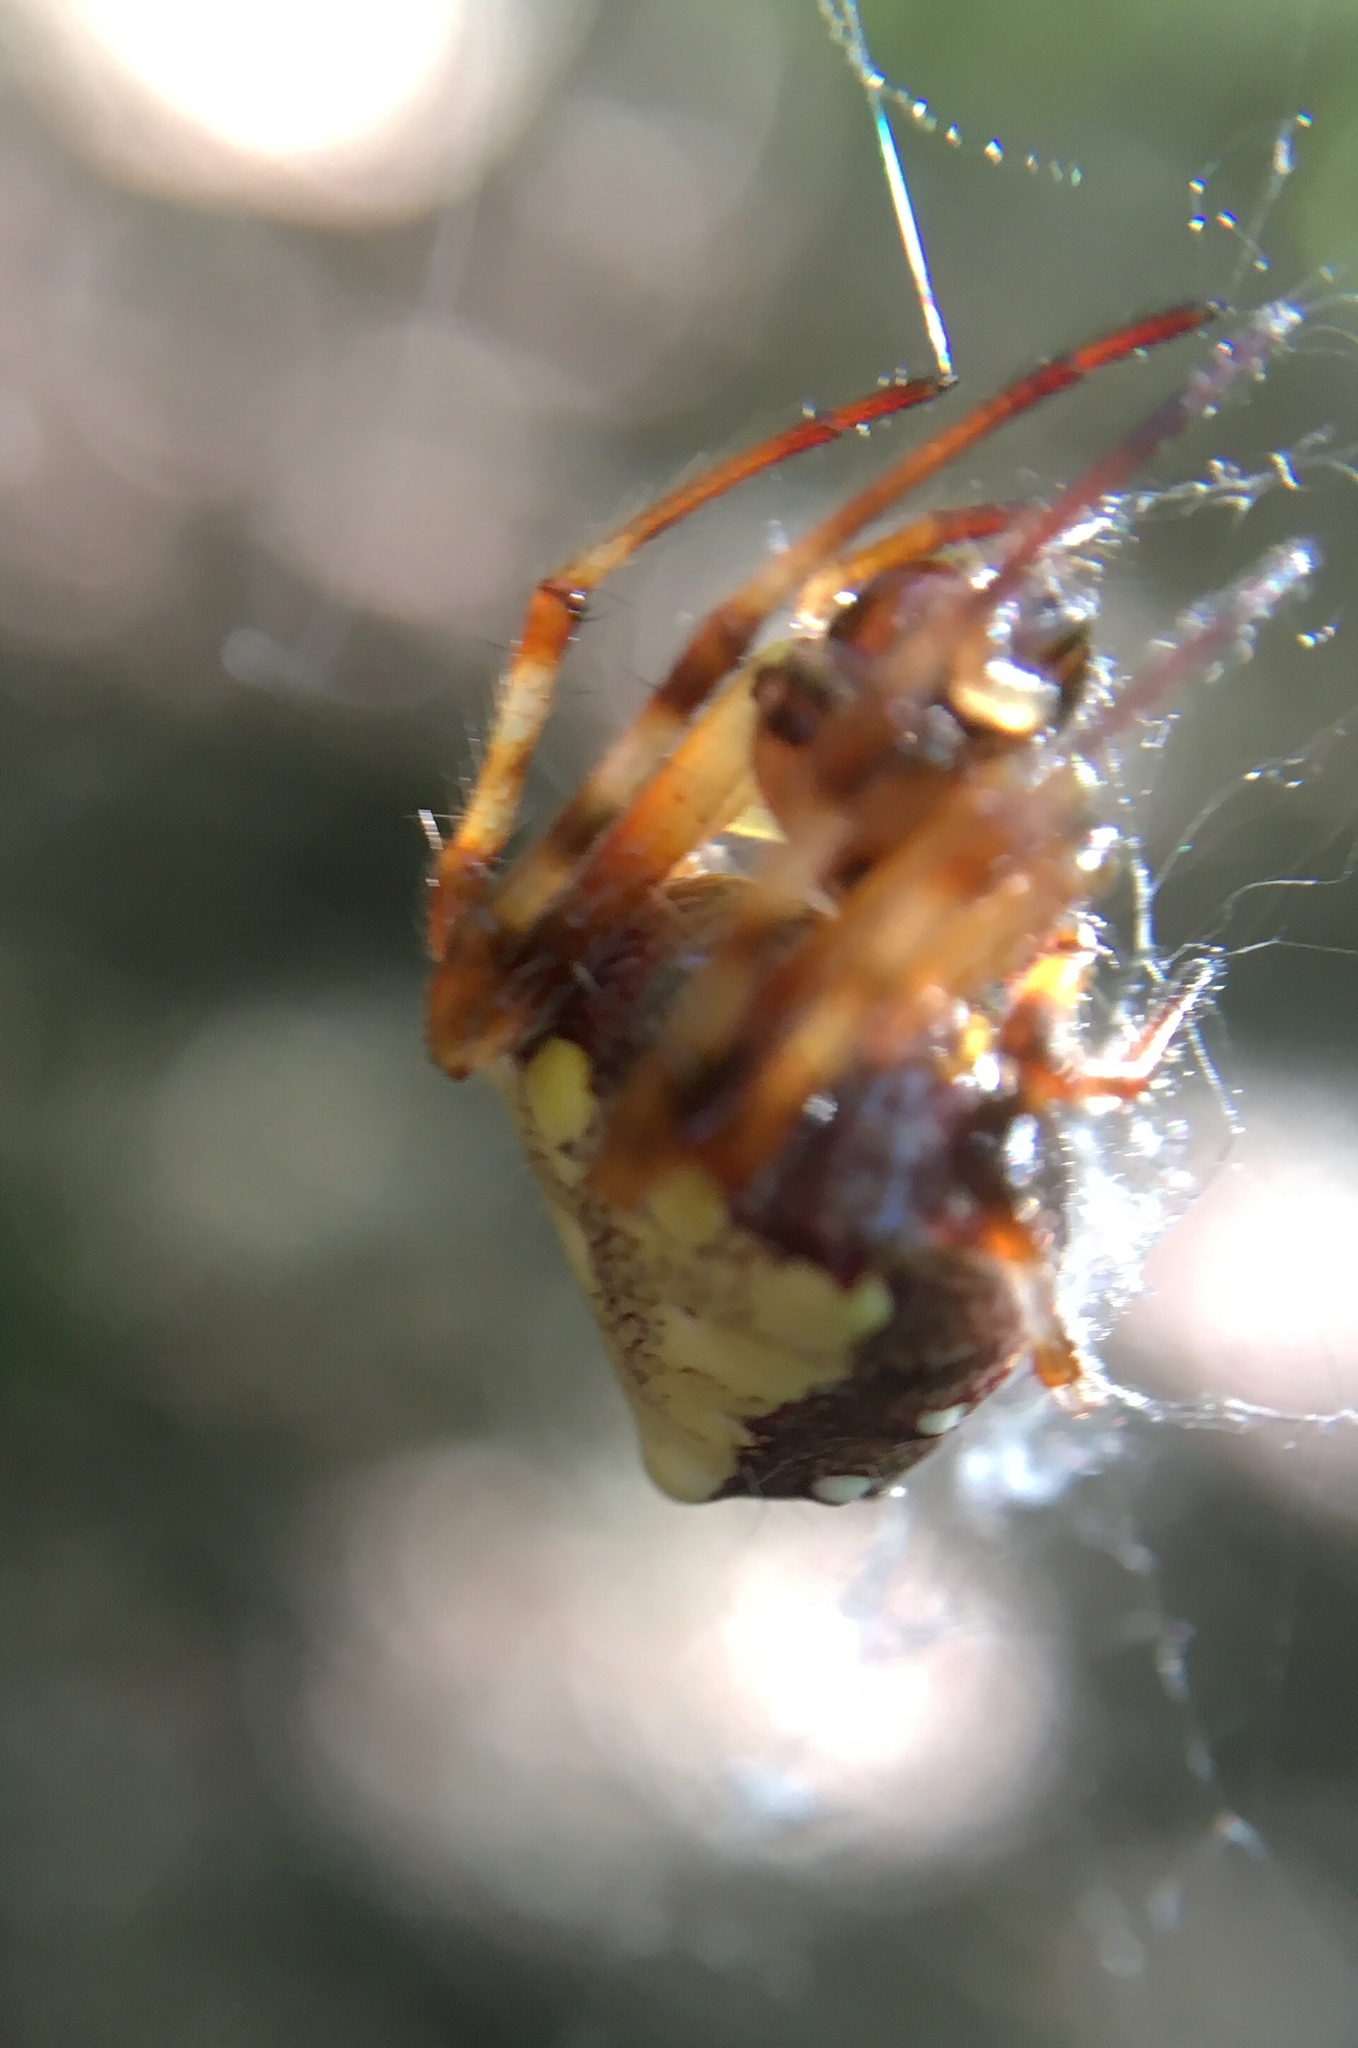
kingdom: Animalia
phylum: Arthropoda
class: Arachnida
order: Araneae
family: Araneidae
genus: Verrucosa
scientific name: Verrucosa arenata
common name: Orb weavers
